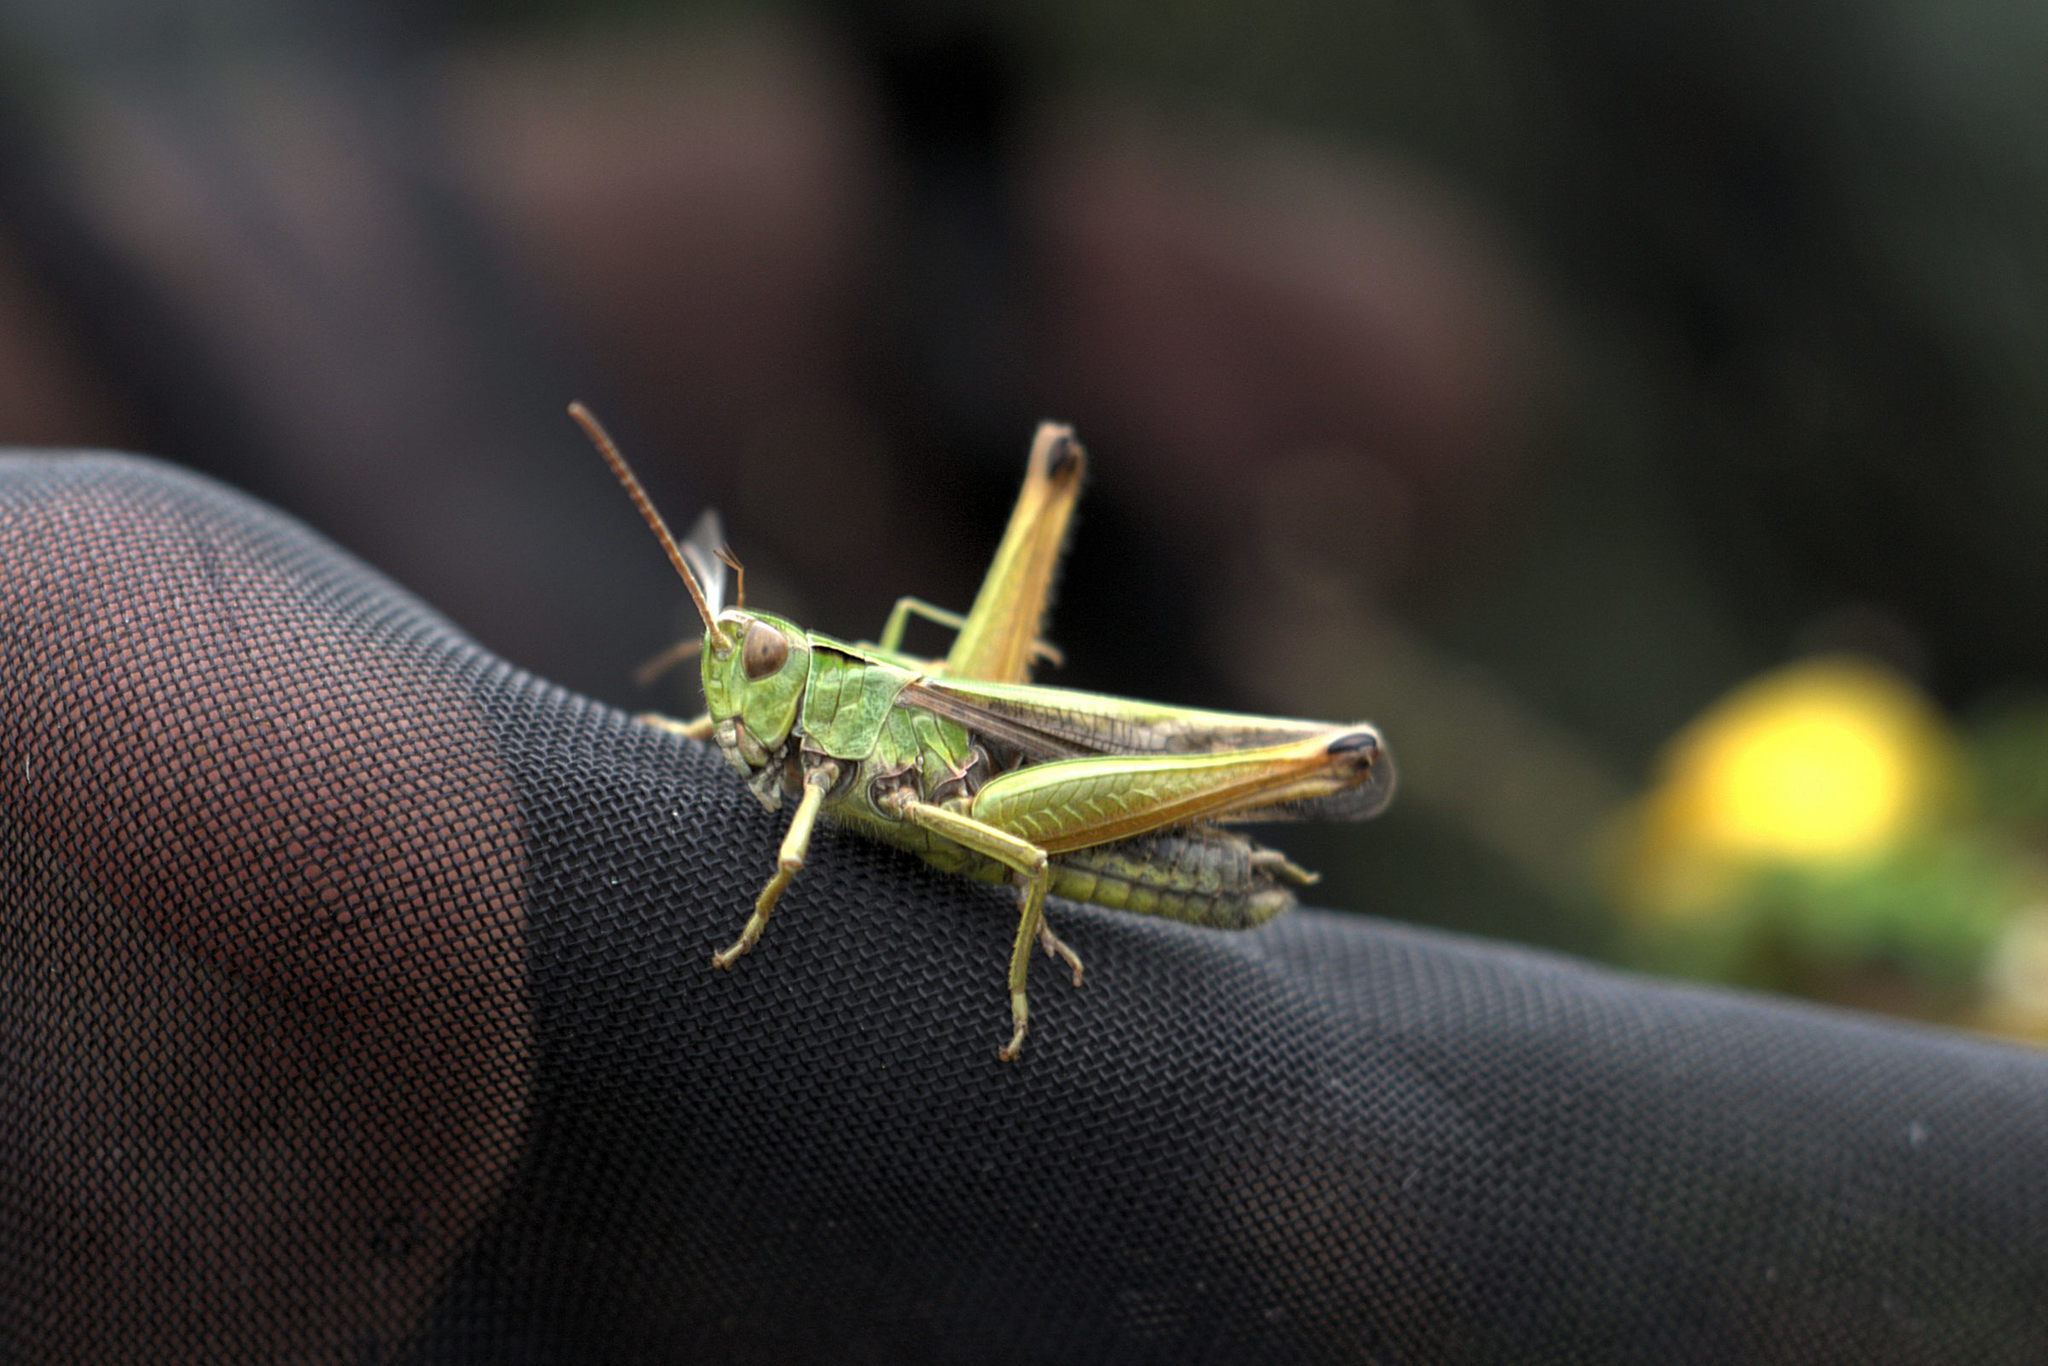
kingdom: Animalia
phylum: Arthropoda
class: Insecta
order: Orthoptera
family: Acrididae
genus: Omocestus
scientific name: Omocestus viridulus
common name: Common green grasshopper
